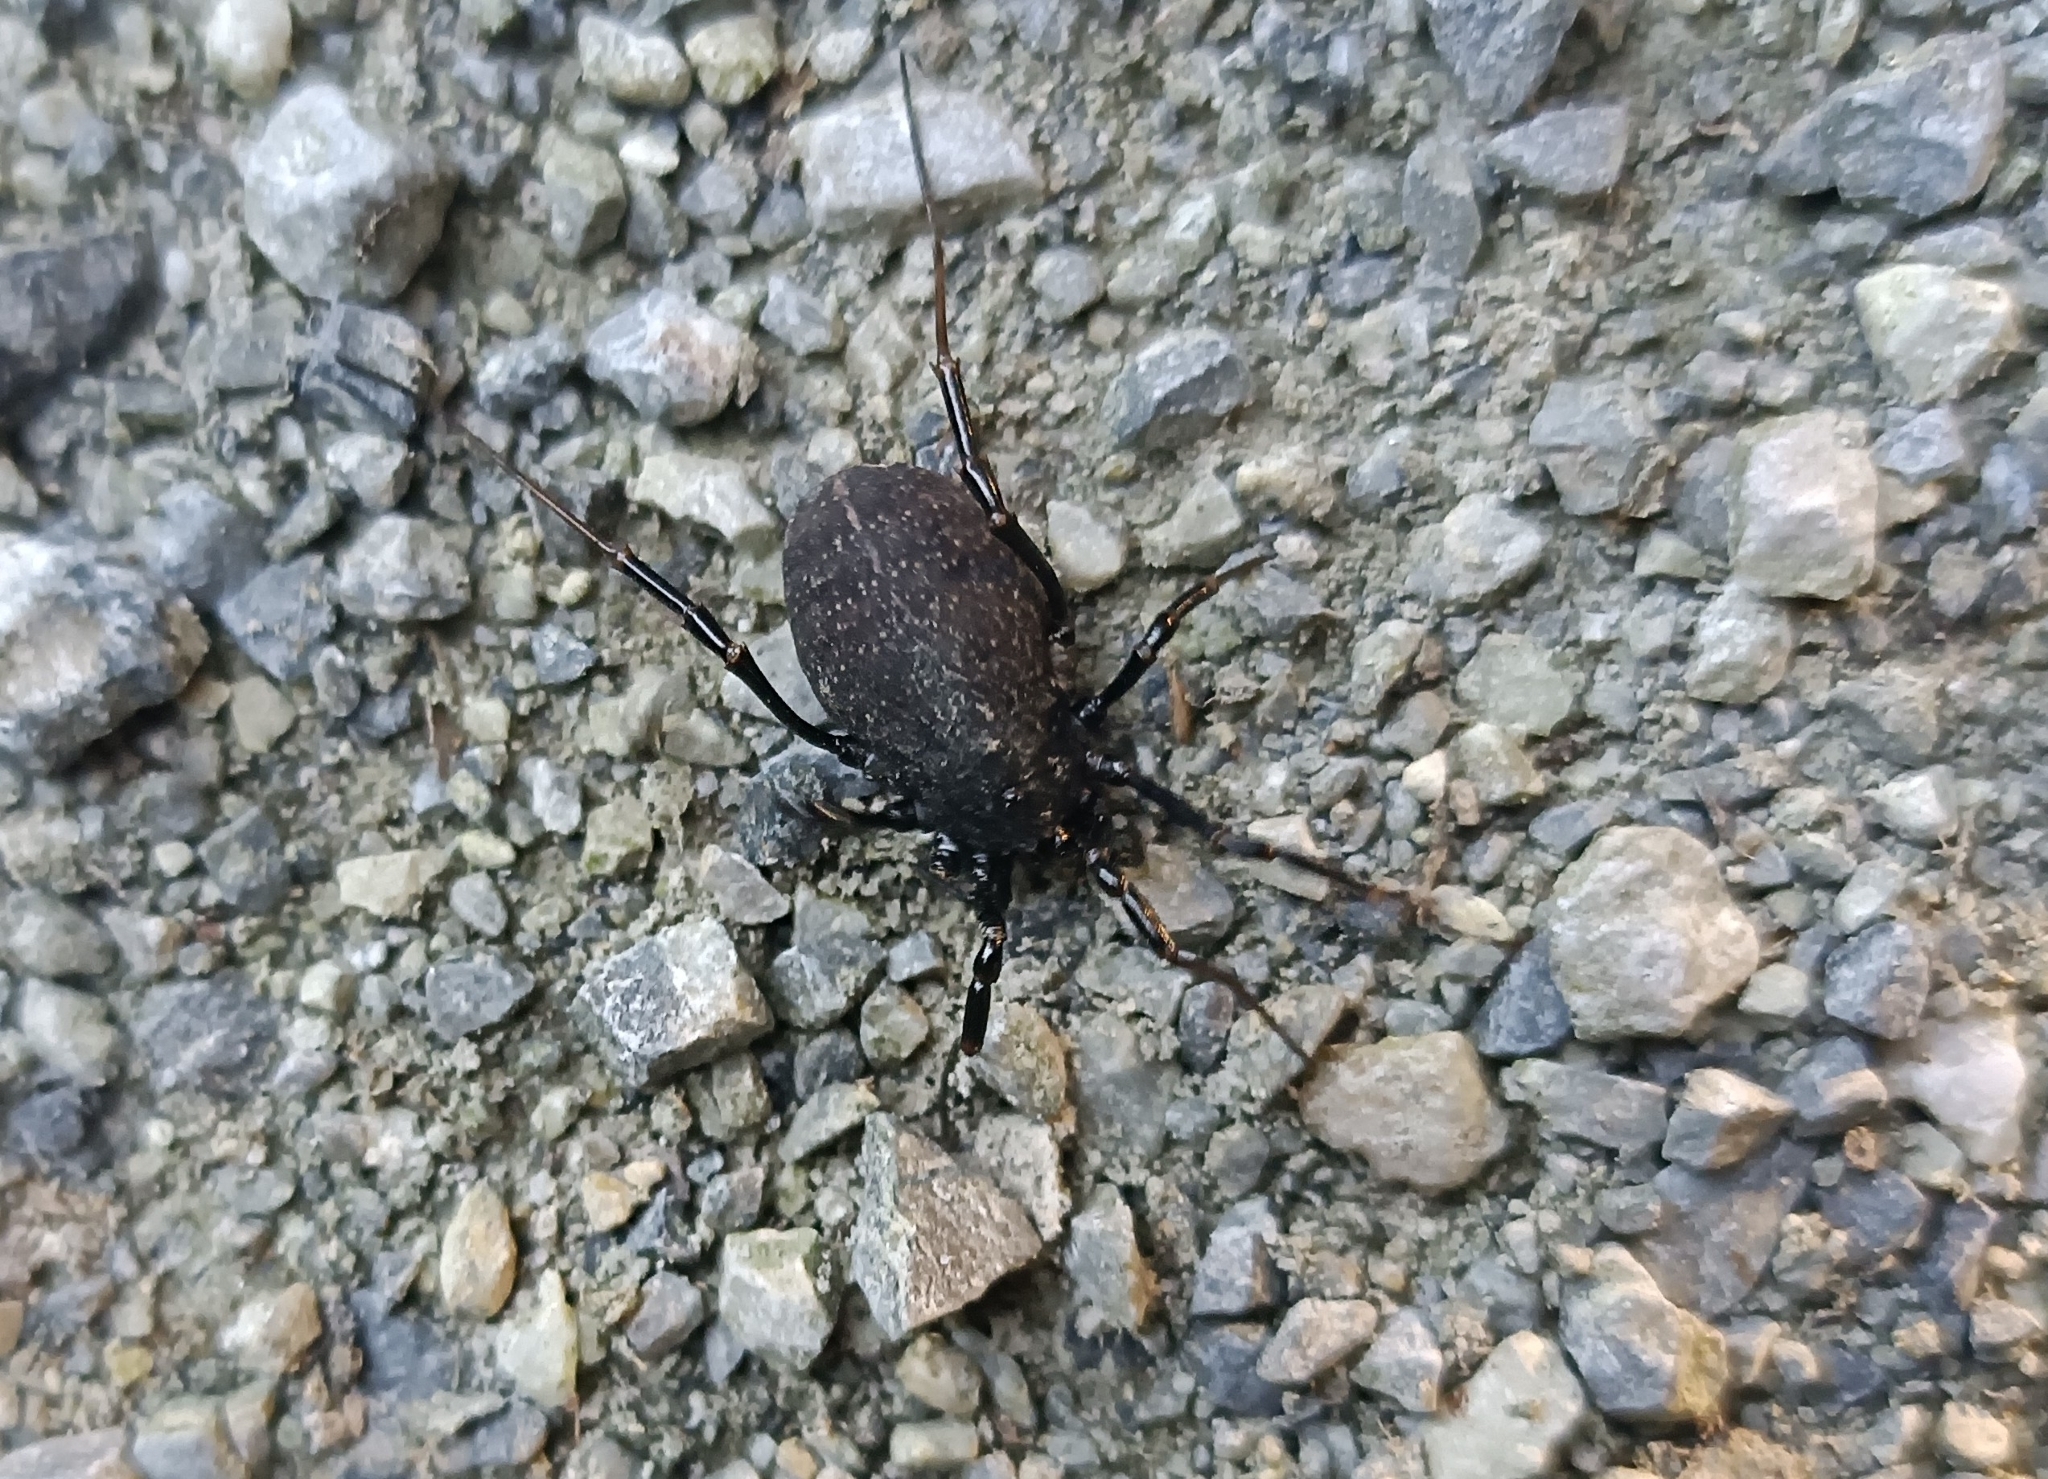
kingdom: Animalia
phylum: Arthropoda
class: Arachnida
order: Opiliones
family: Phalangiidae
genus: Egaenus
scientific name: Egaenus convexus
